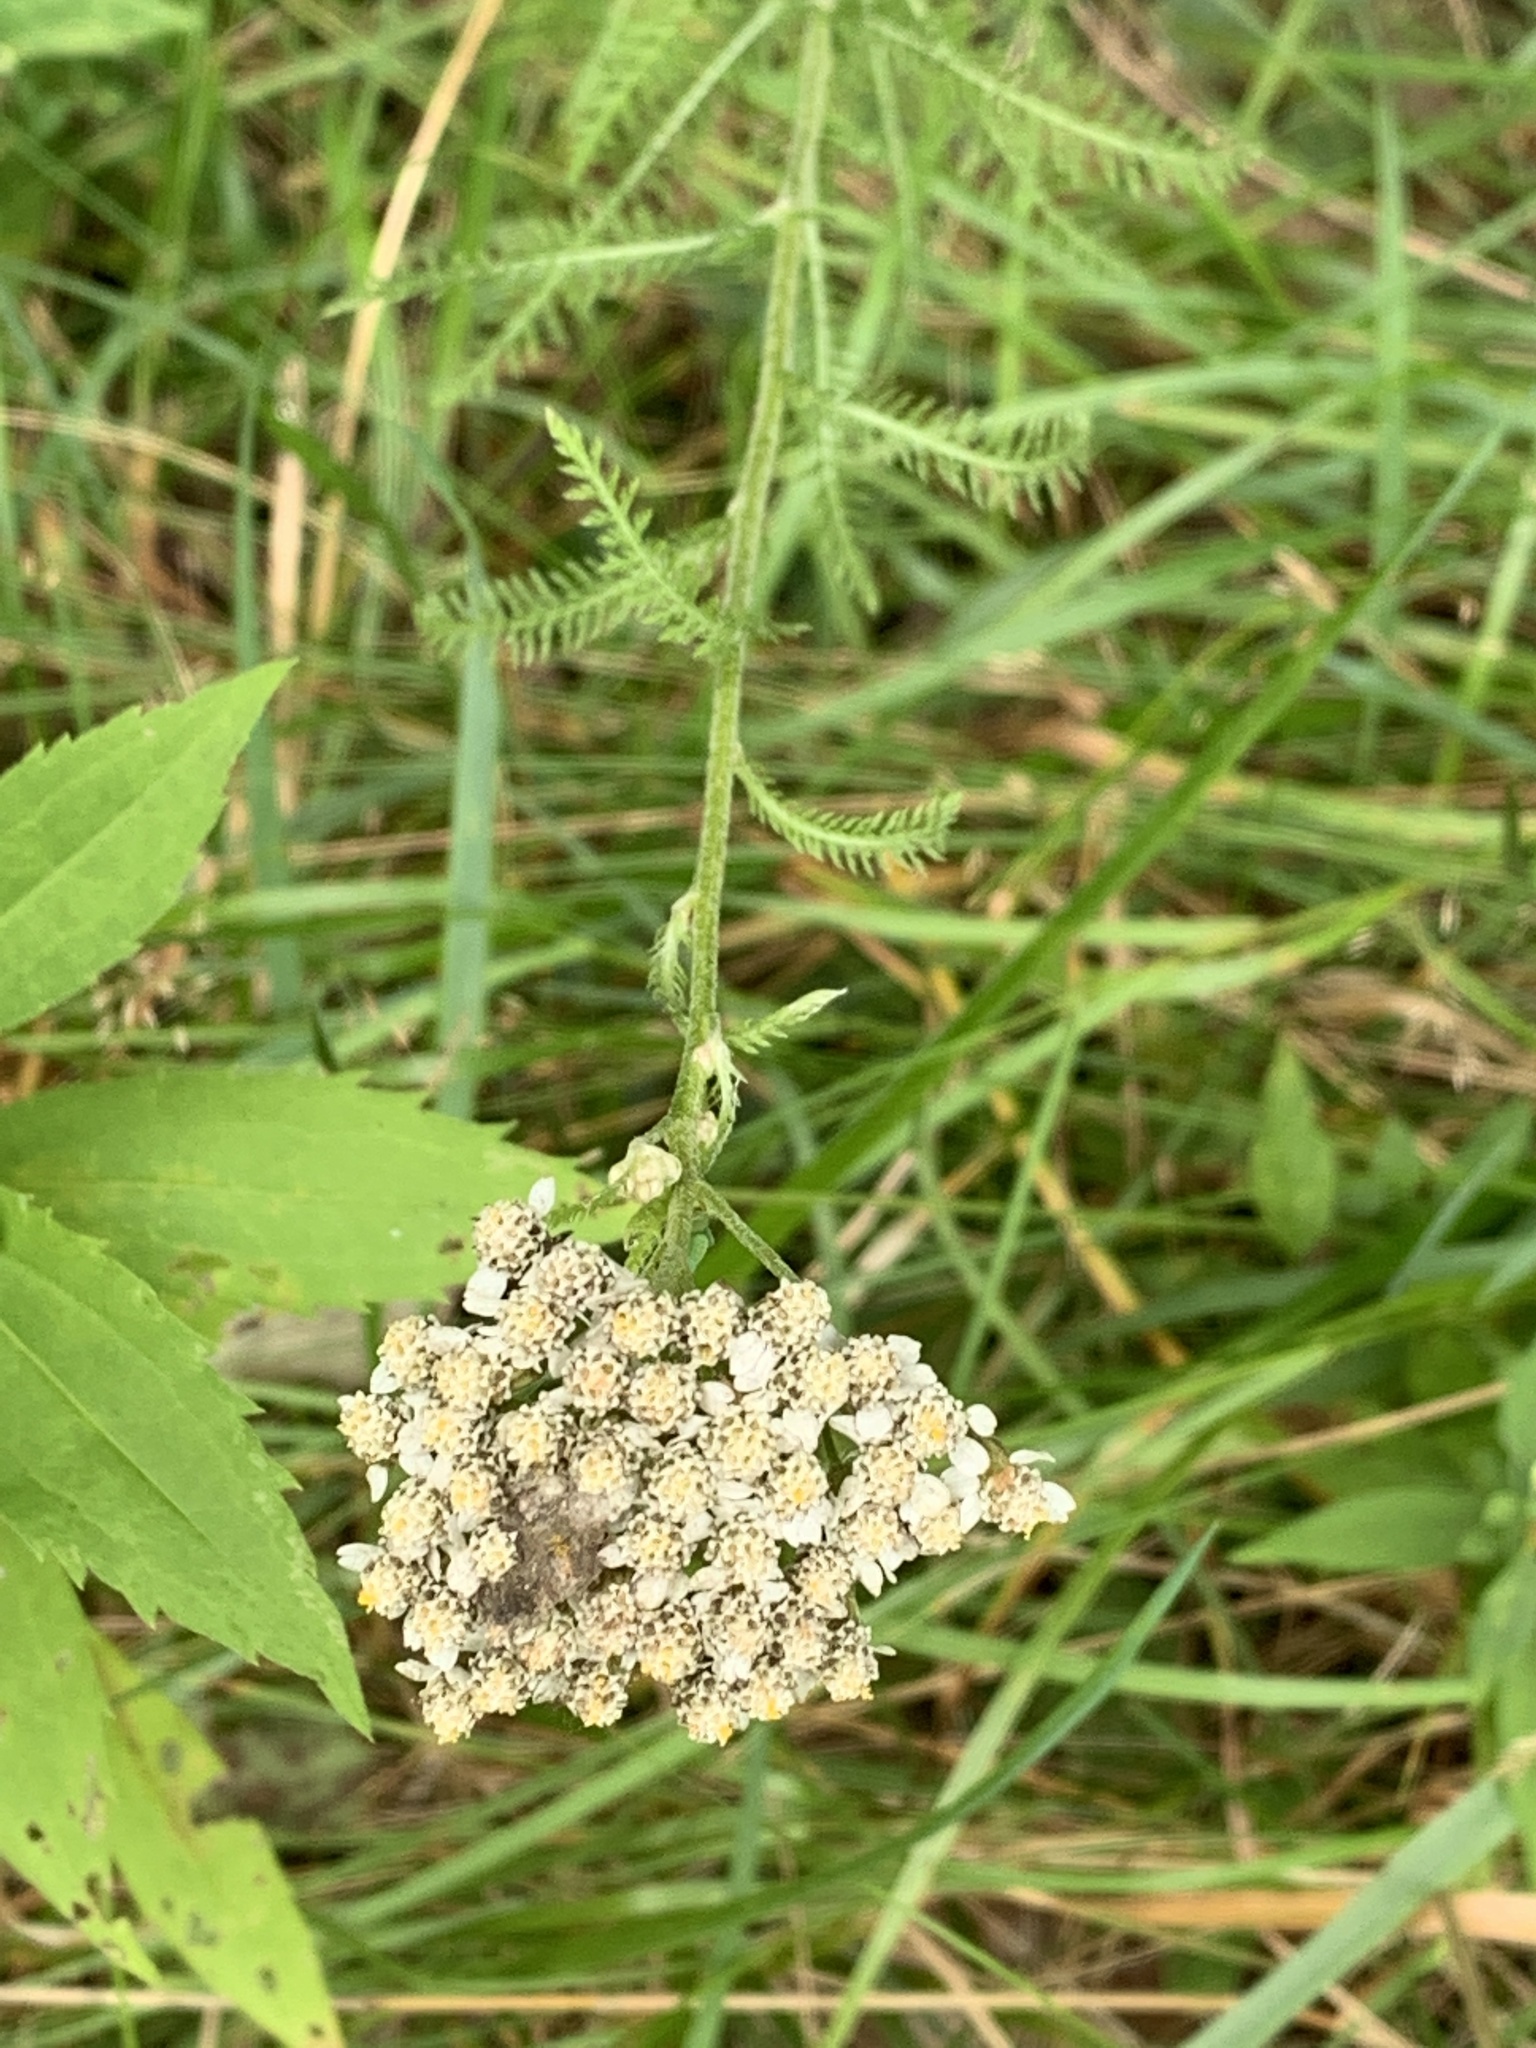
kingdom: Plantae
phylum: Tracheophyta
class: Magnoliopsida
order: Asterales
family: Asteraceae
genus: Achillea
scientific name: Achillea millefolium
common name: Yarrow
